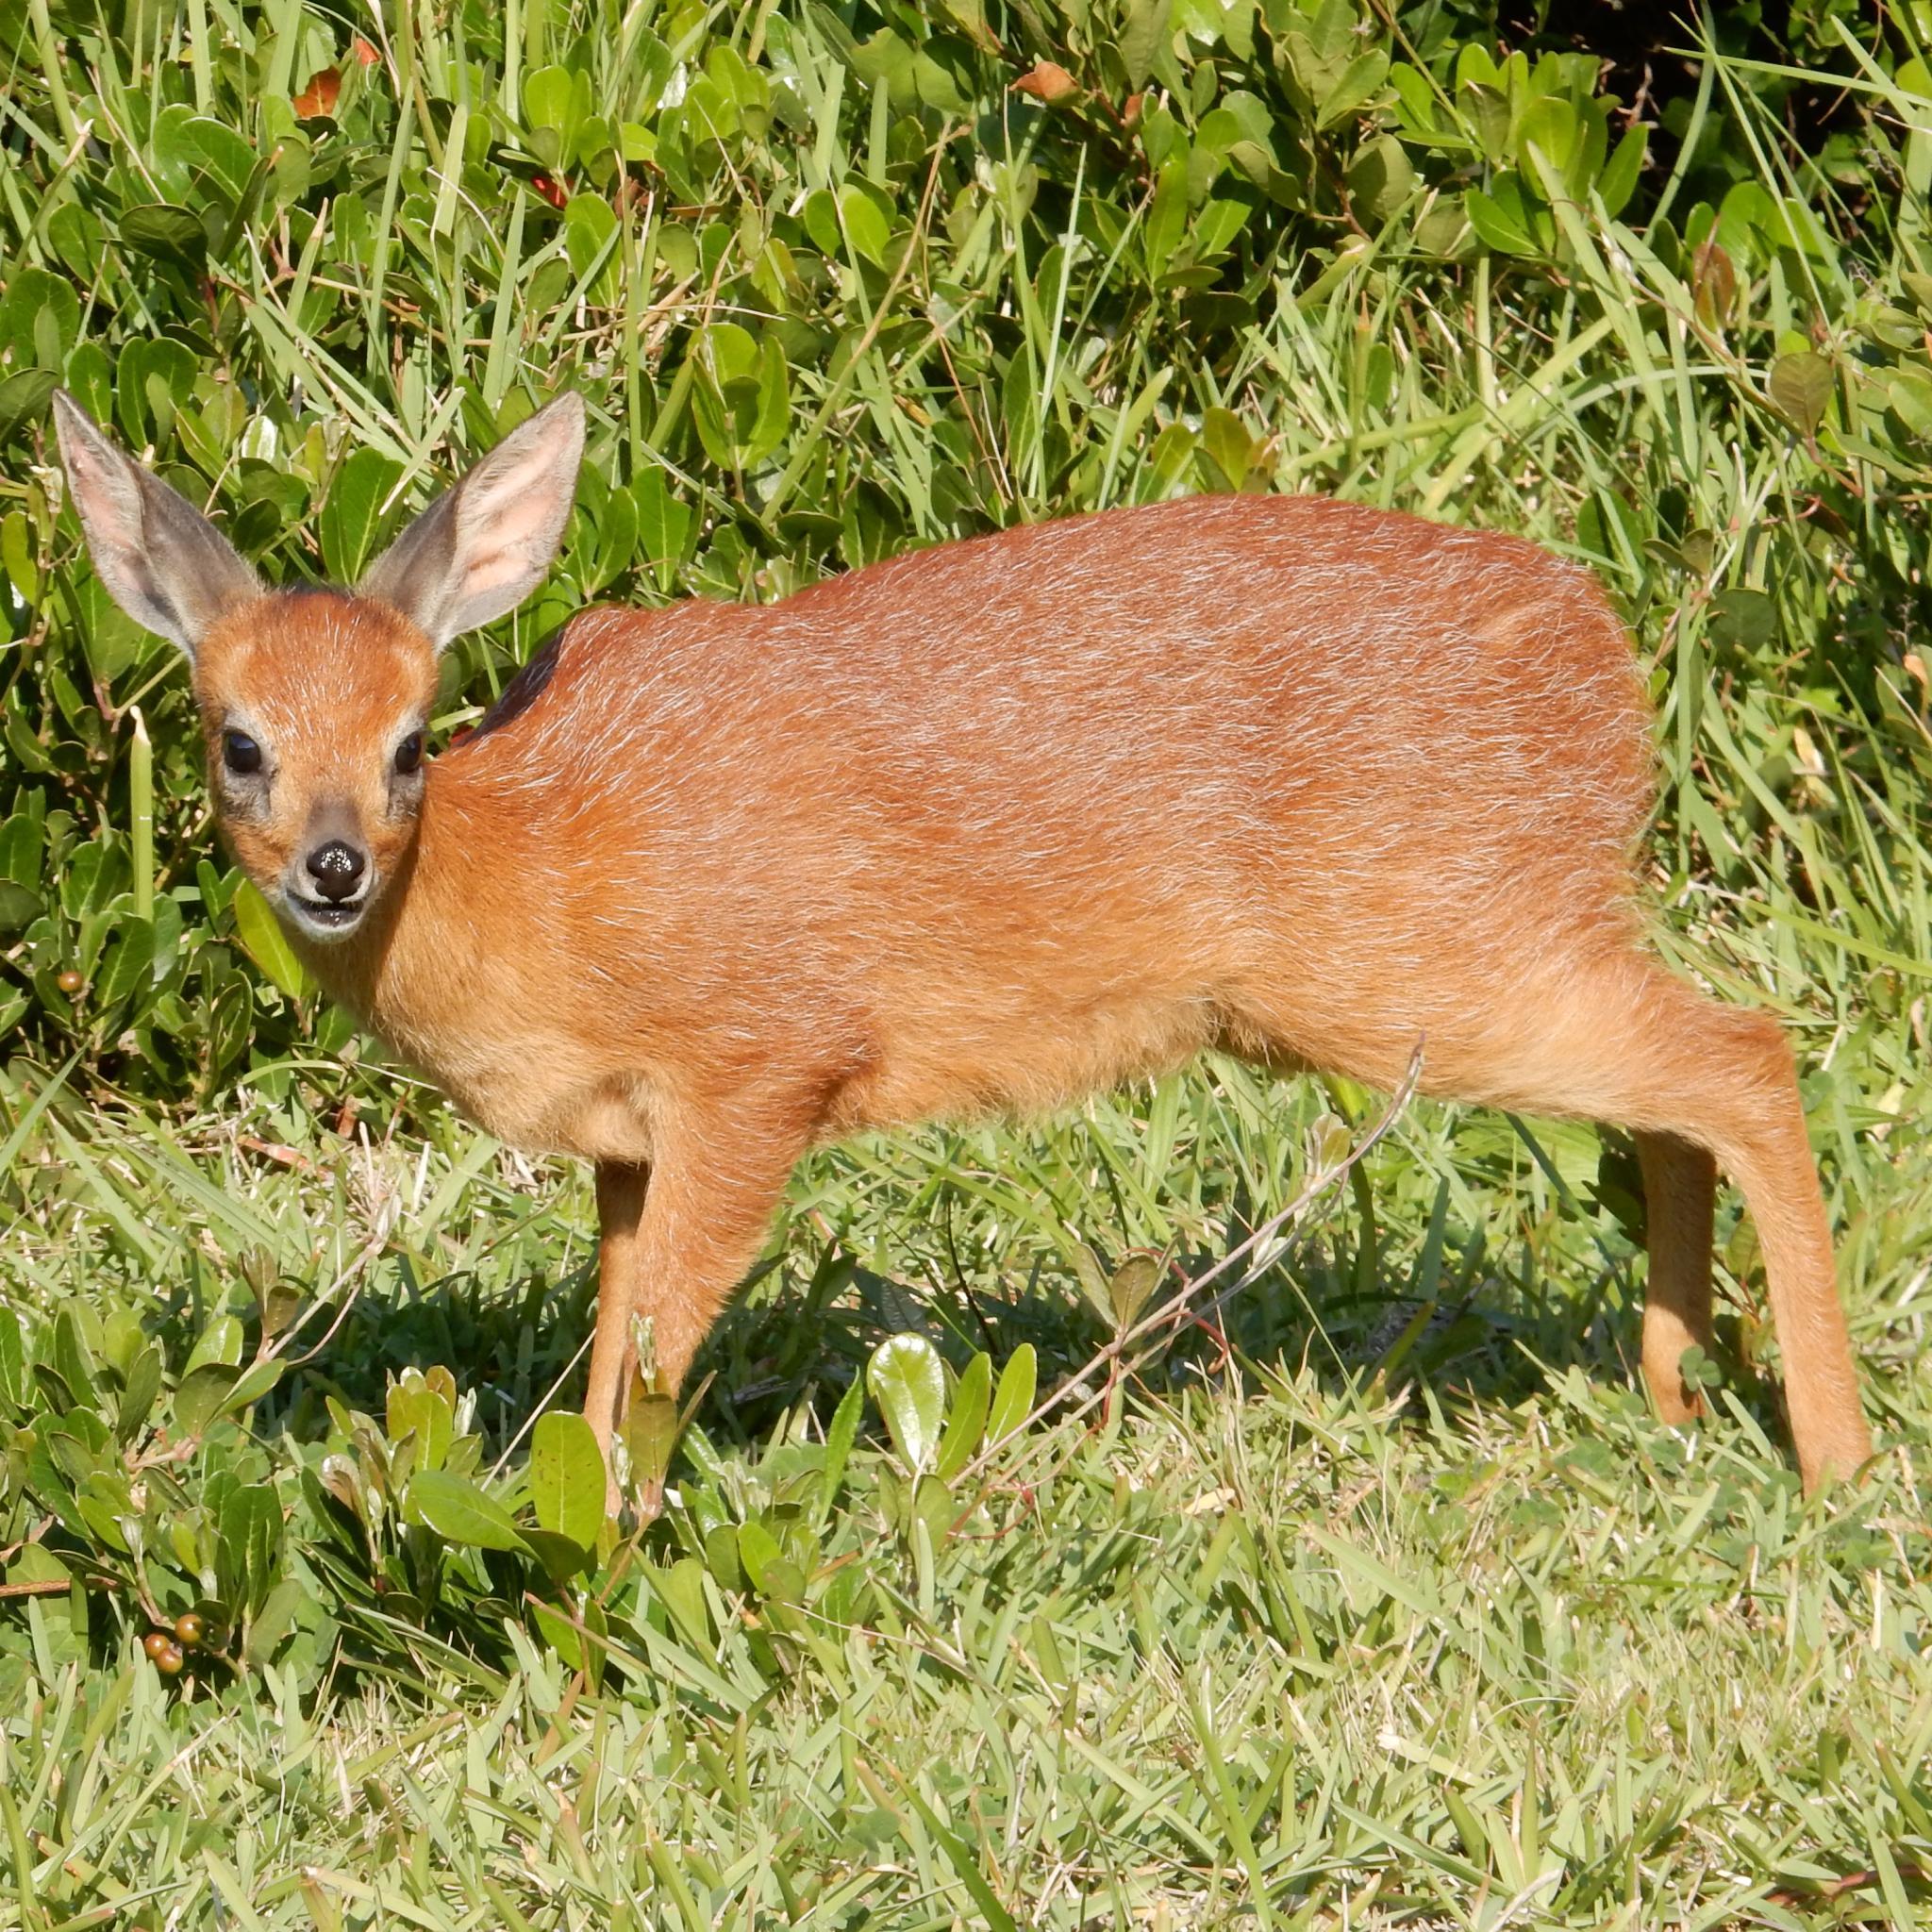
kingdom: Animalia
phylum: Chordata
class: Mammalia
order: Artiodactyla
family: Bovidae
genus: Raphicerus
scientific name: Raphicerus melanotis
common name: Cape grysbok
